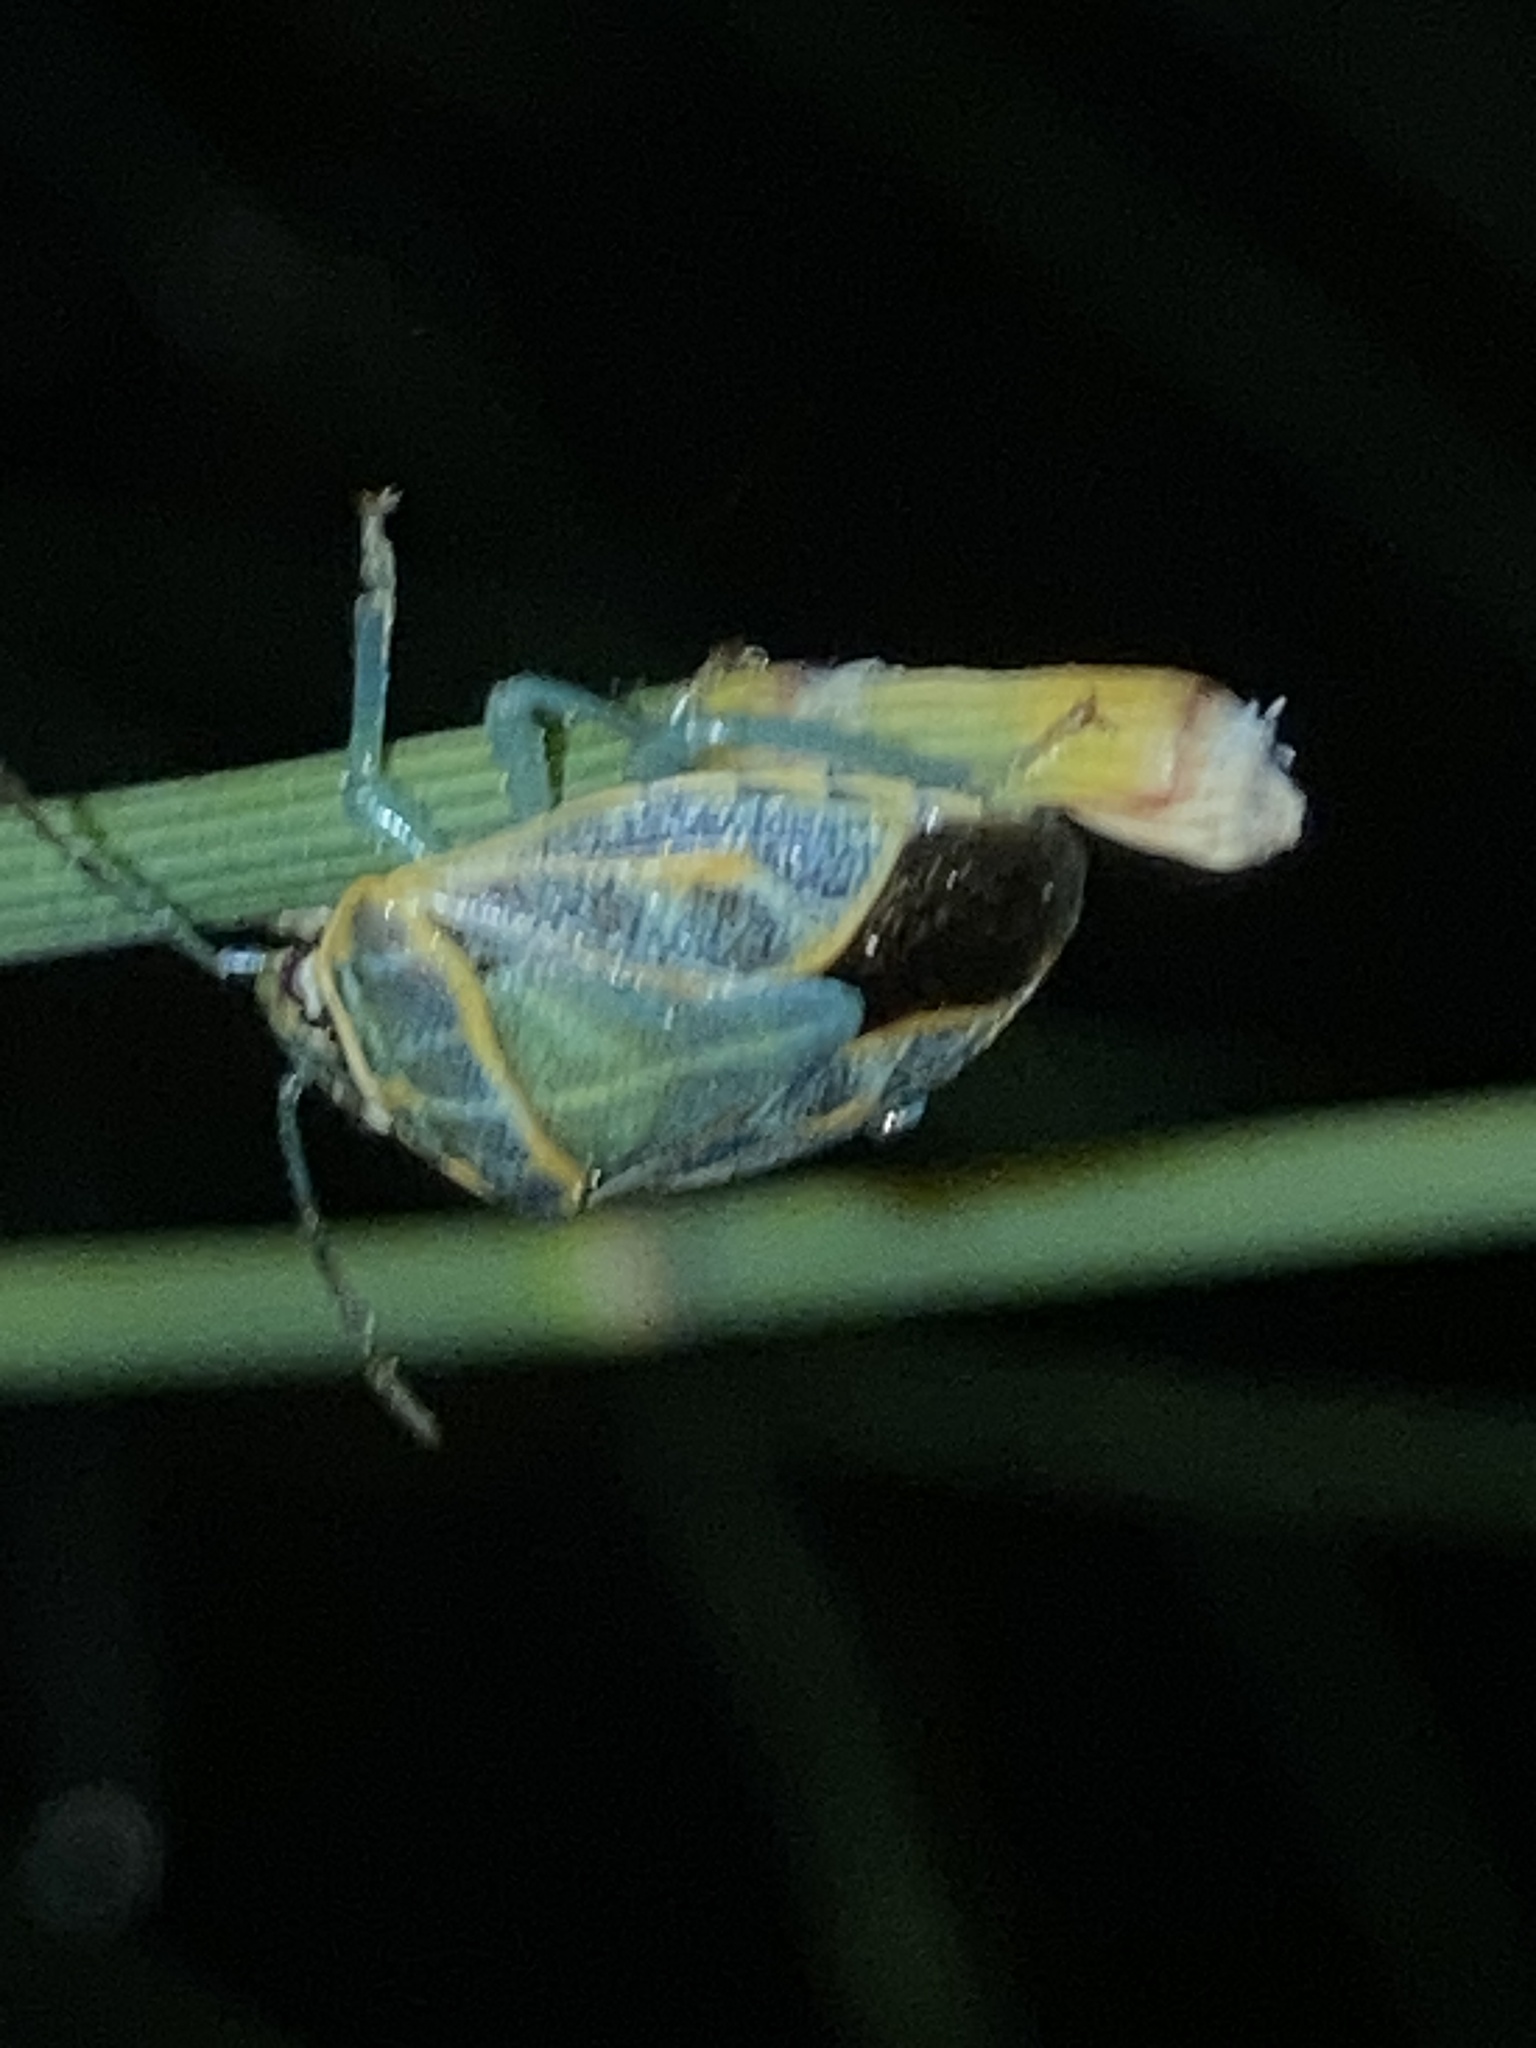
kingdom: Animalia
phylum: Arthropoda
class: Insecta
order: Hemiptera
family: Pentatomidae
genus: Antestiopsis
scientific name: Antestiopsis
